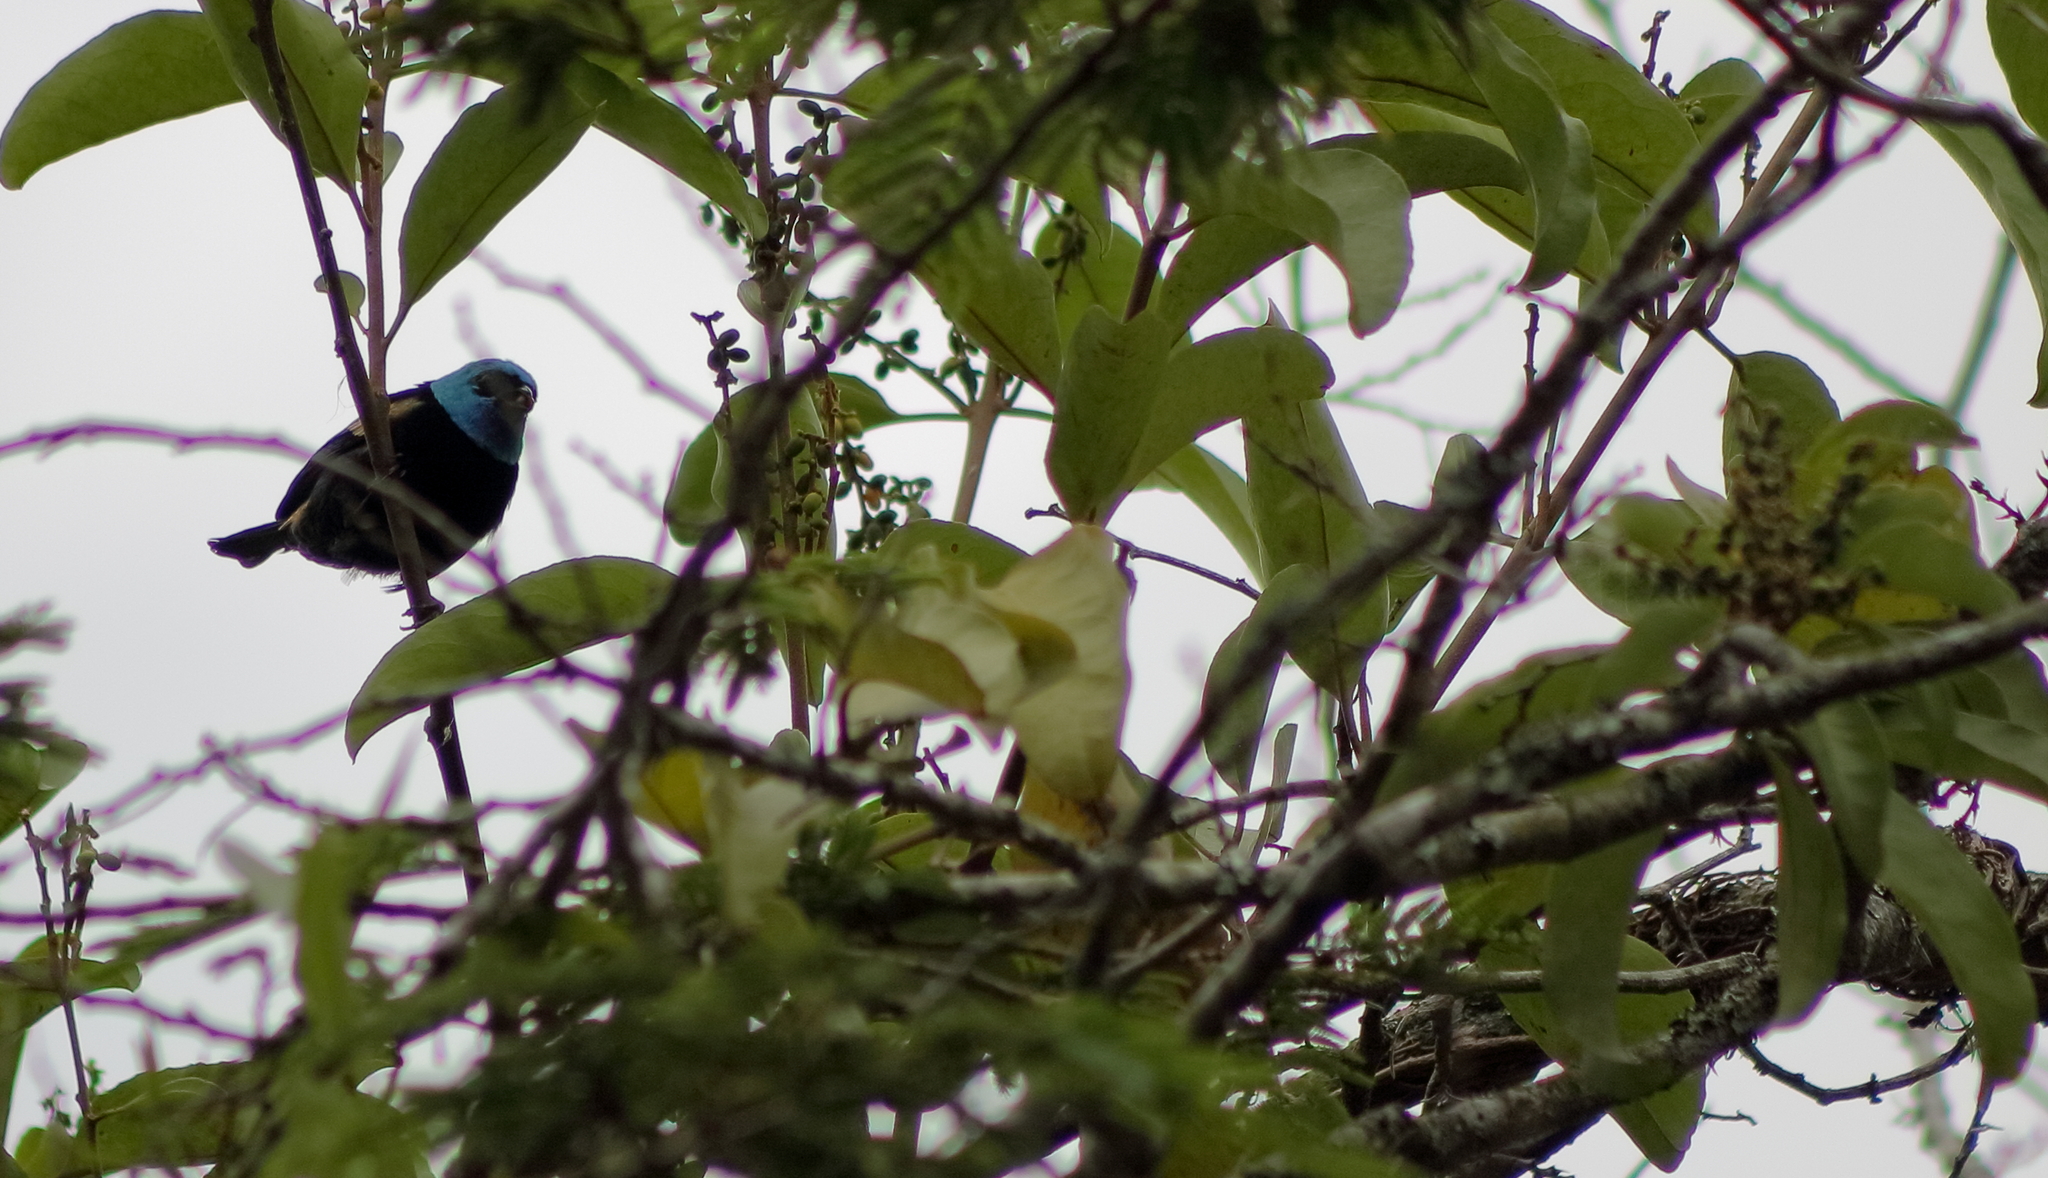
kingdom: Animalia
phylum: Chordata
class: Aves
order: Passeriformes
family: Thraupidae
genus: Stilpnia
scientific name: Stilpnia cyanicollis
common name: Blue-necked tanager
